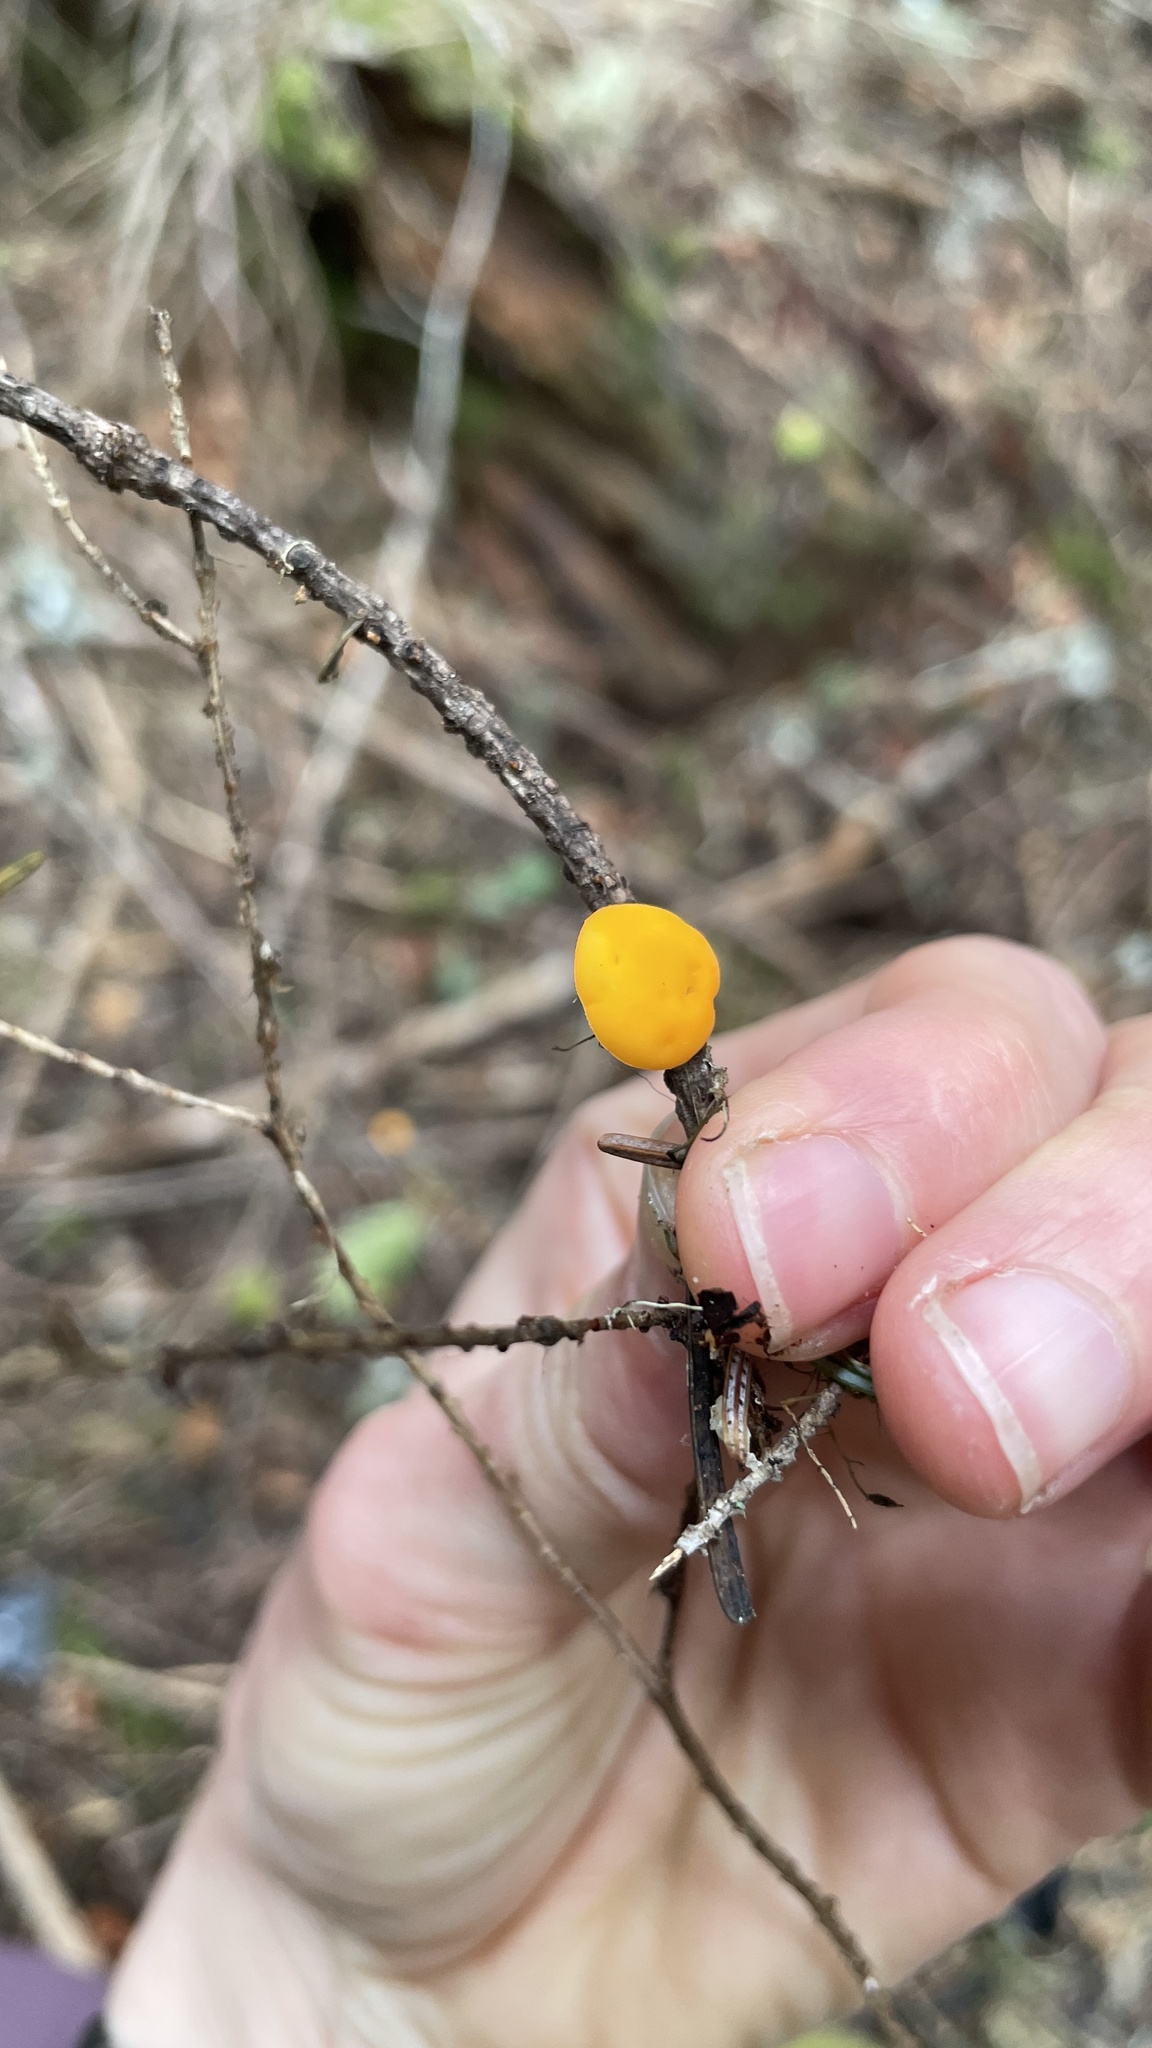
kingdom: Fungi
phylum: Ascomycota
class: Pezizomycetes
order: Pezizales
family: Sarcoscyphaceae
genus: Pithya
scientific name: Pithya vulgaris
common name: Fir disco
